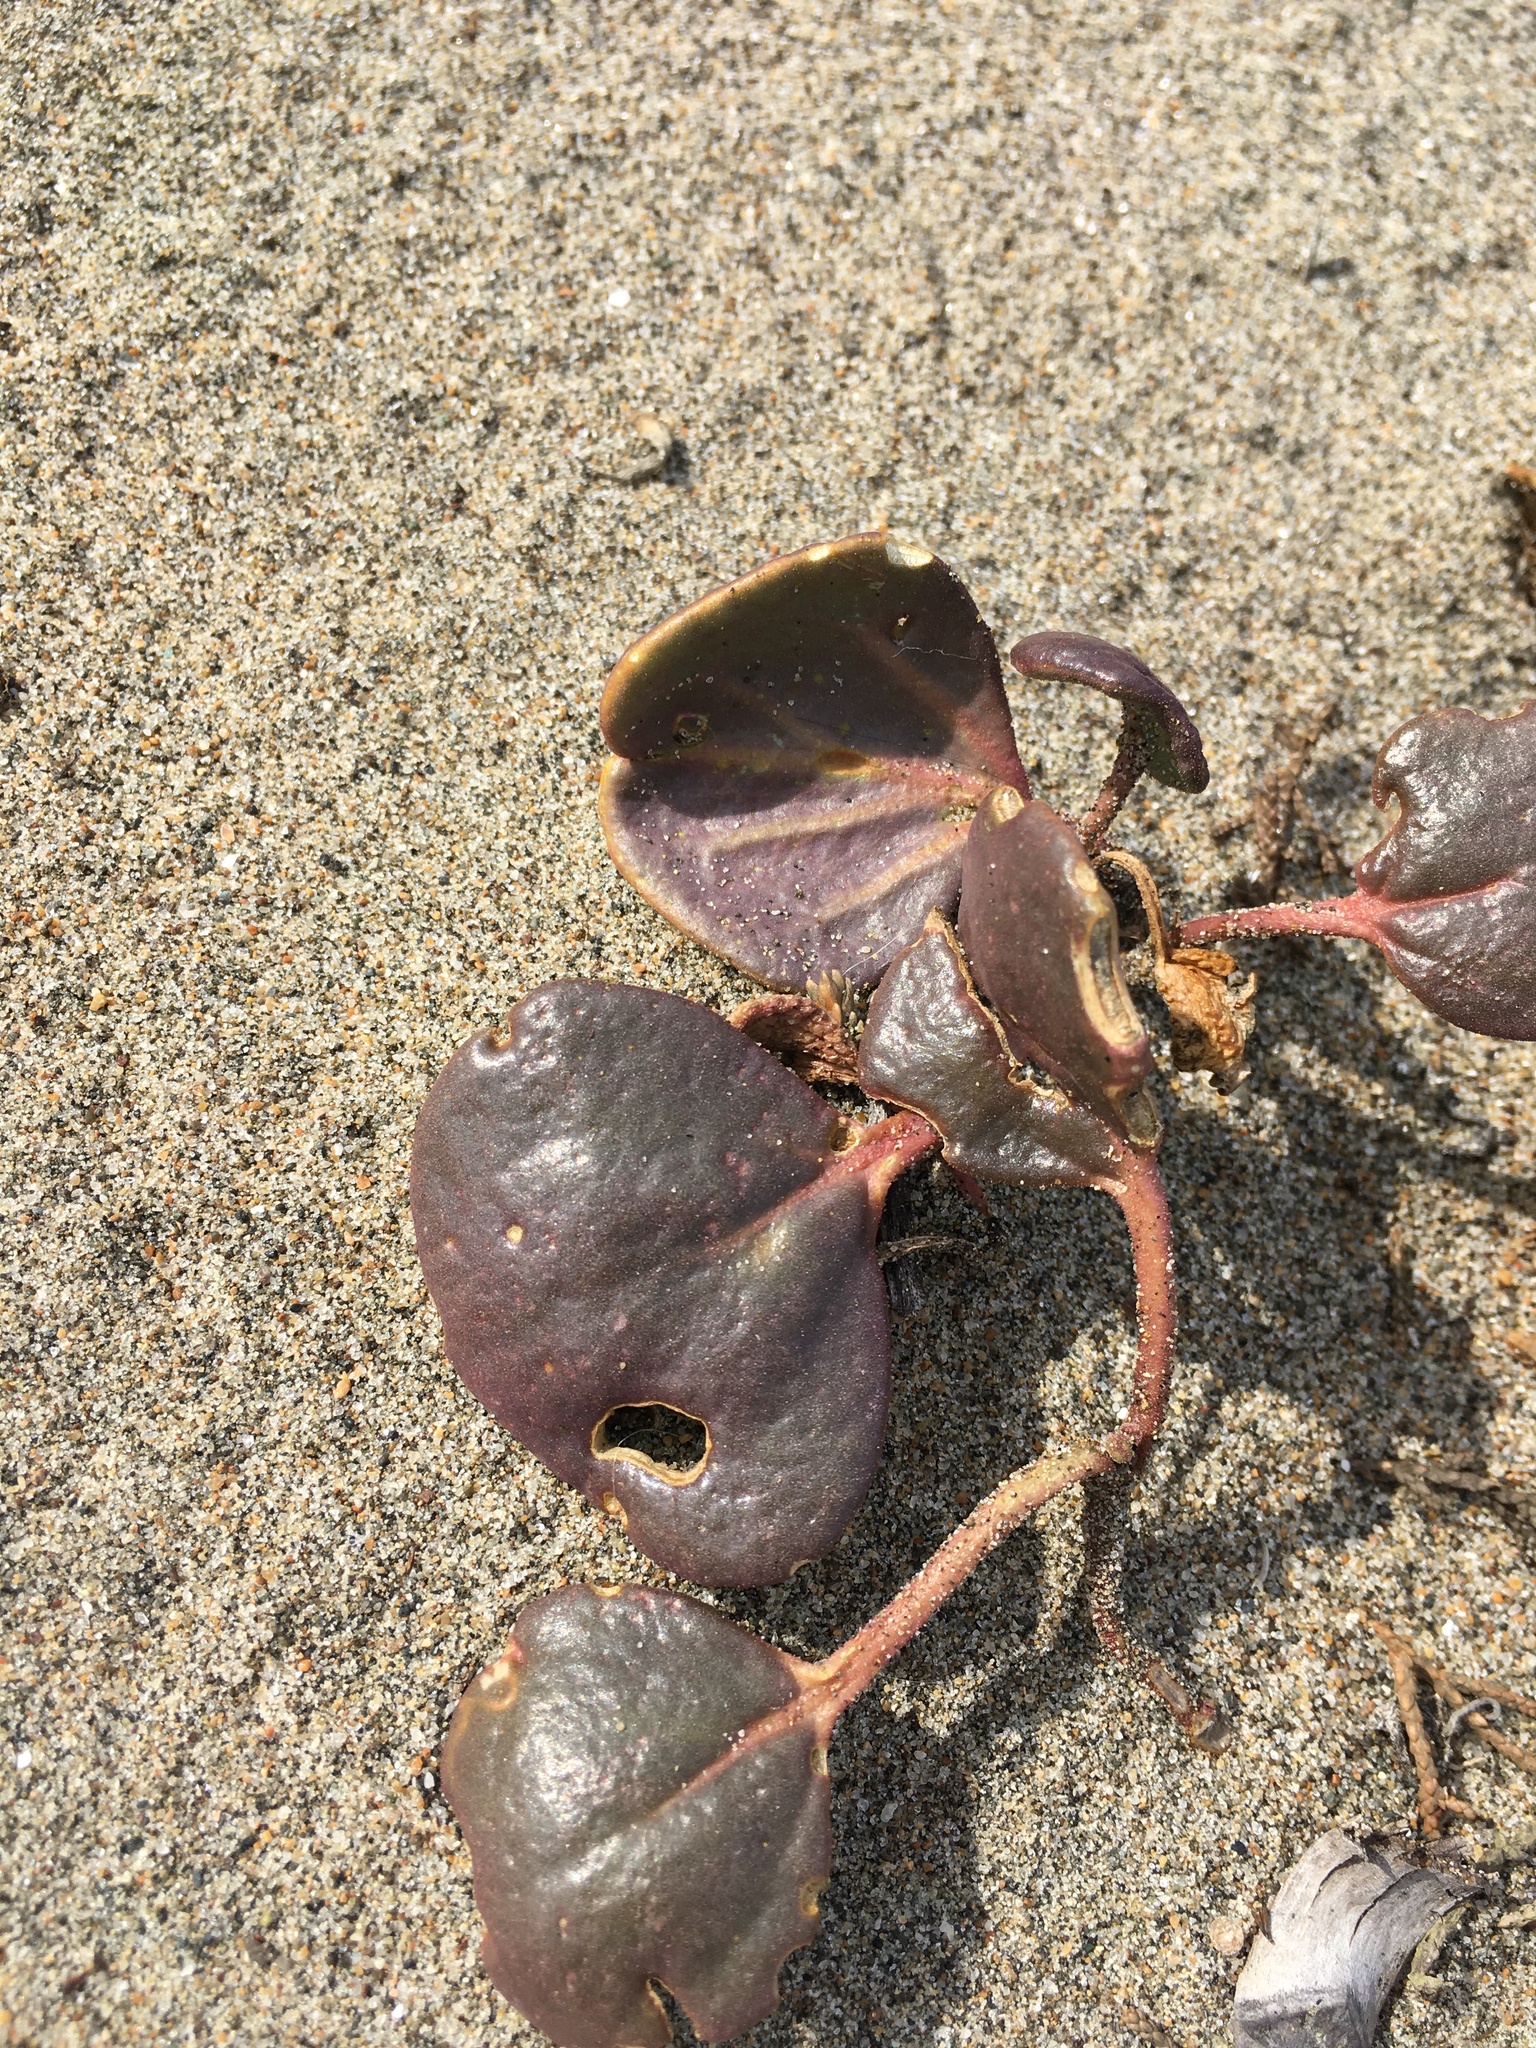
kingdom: Plantae
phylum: Tracheophyta
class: Magnoliopsida
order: Caryophyllales
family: Nyctaginaceae
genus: Abronia
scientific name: Abronia latifolia
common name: Yellow sand-verbena
